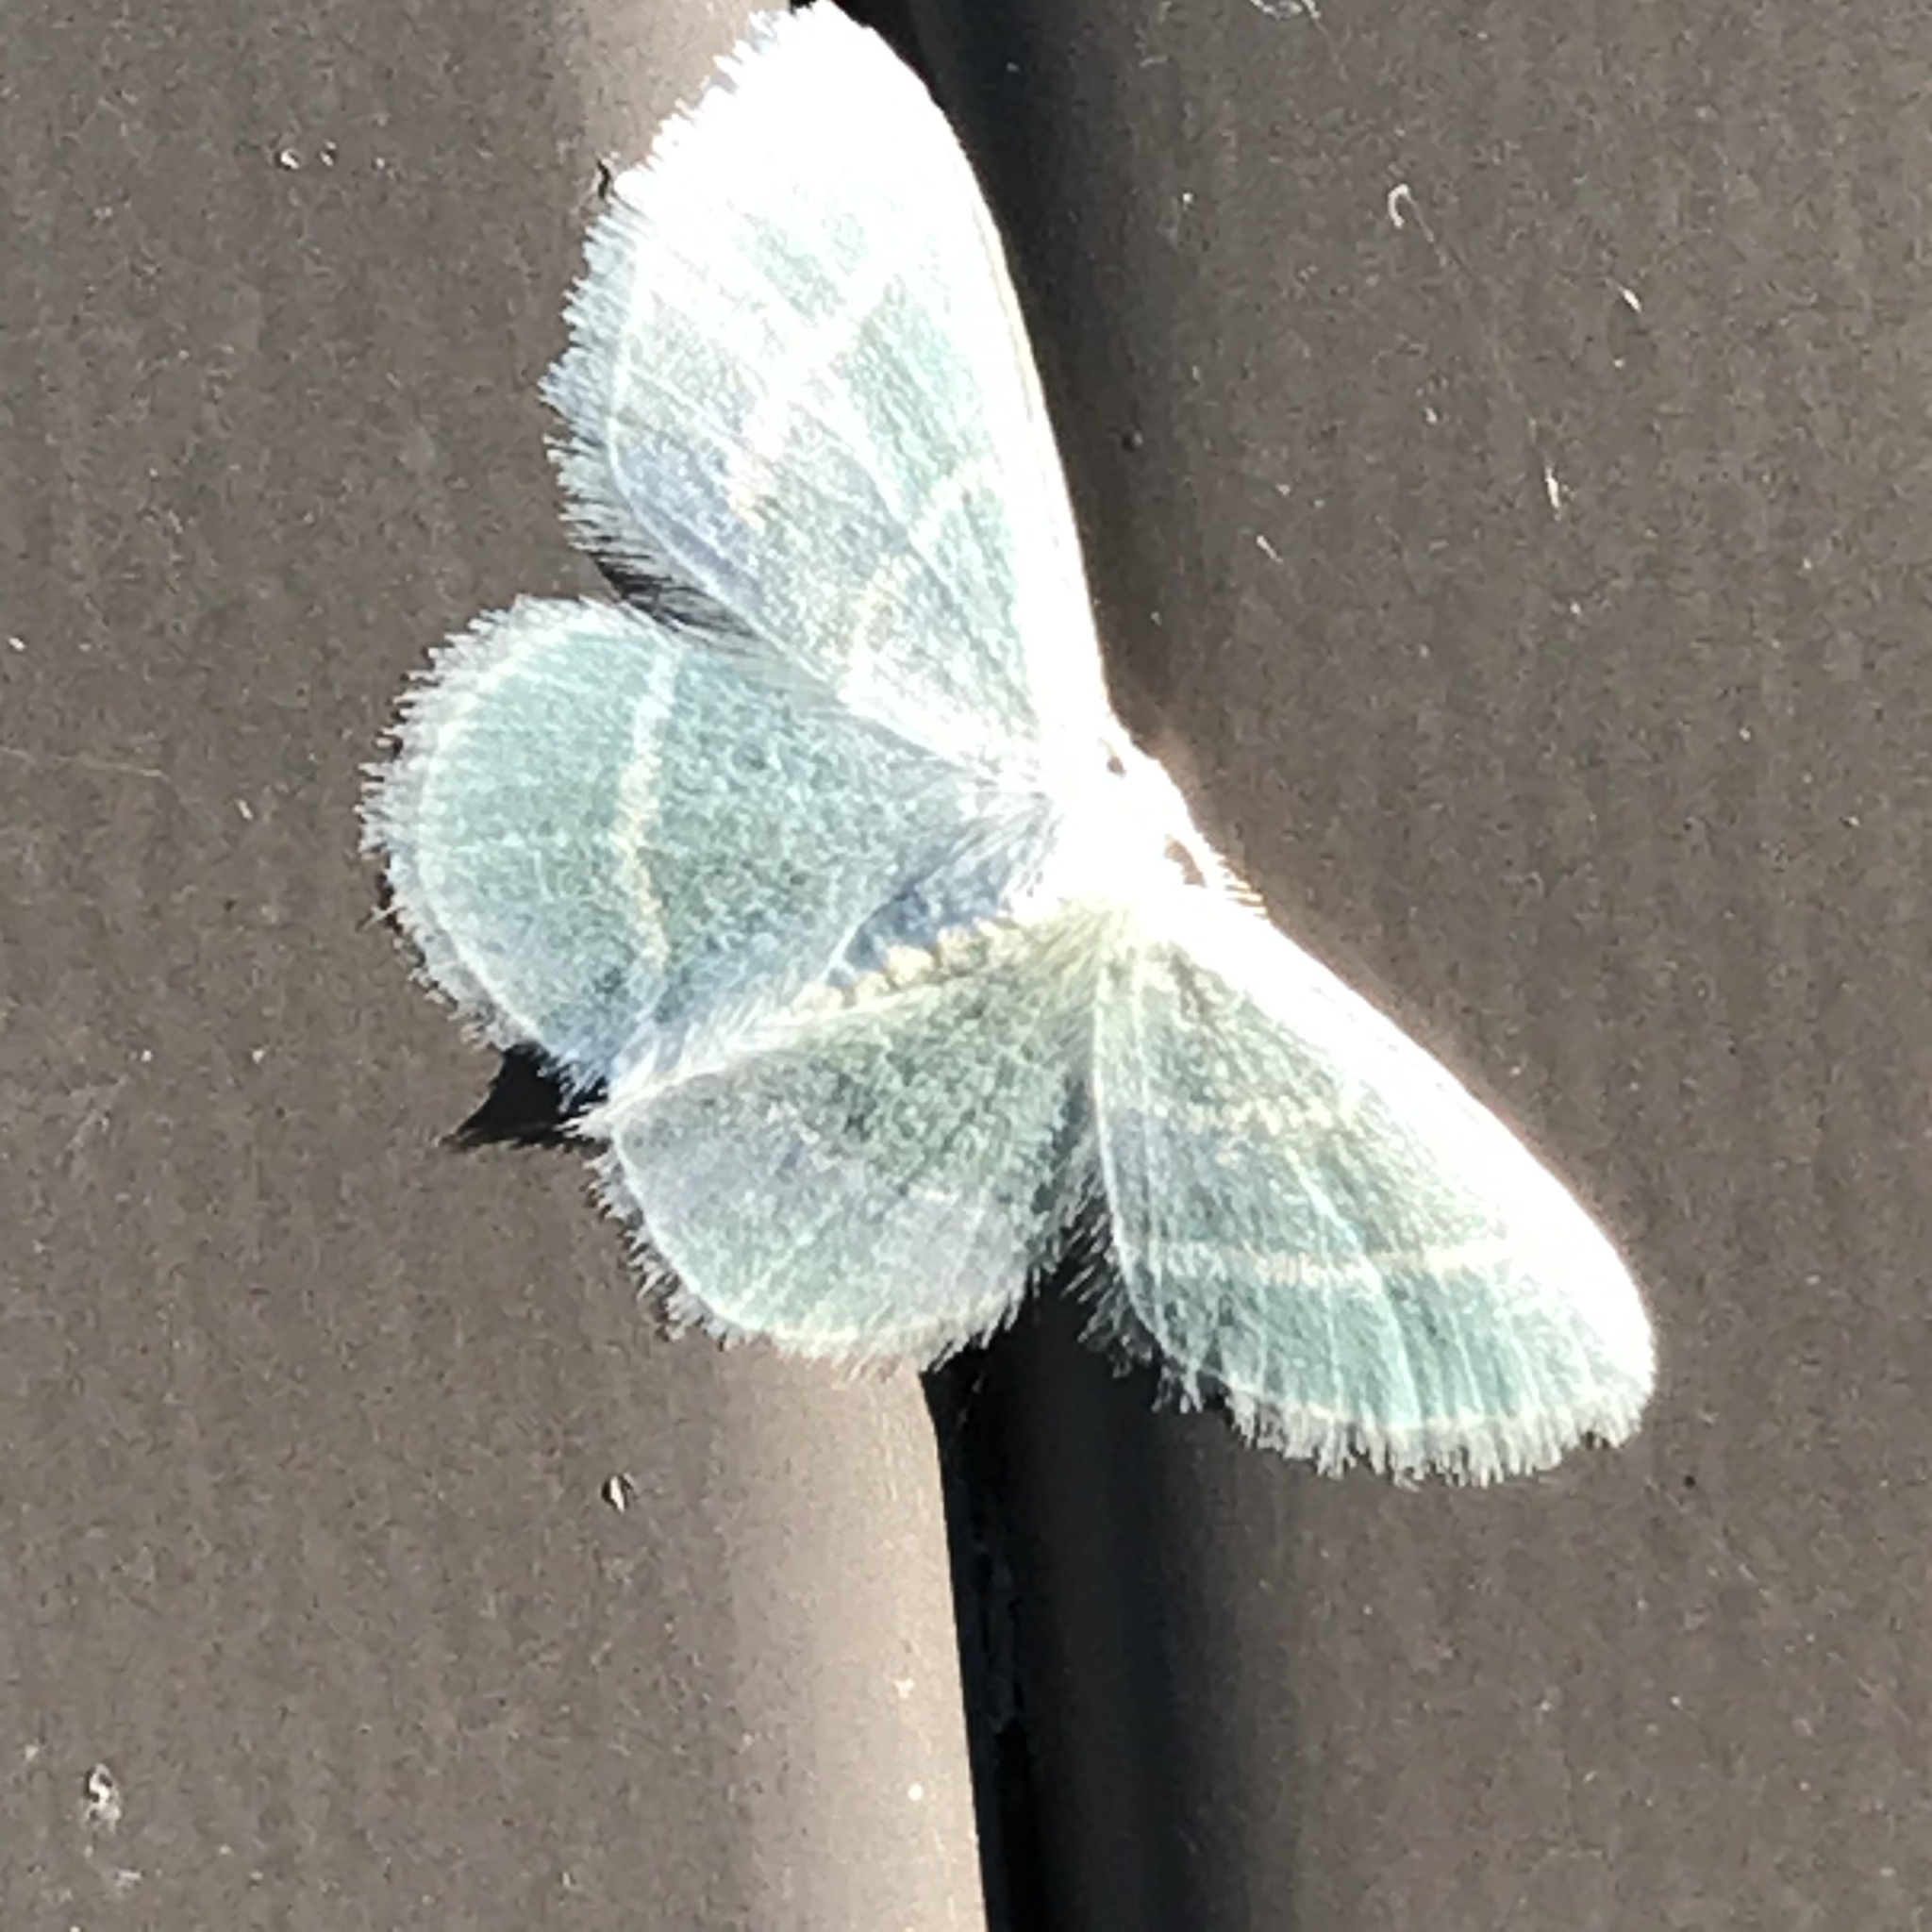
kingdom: Animalia
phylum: Arthropoda
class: Insecta
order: Lepidoptera
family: Geometridae
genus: Chlorochlamys
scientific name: Chlorochlamys chloroleucaria
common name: Blackberry looper
